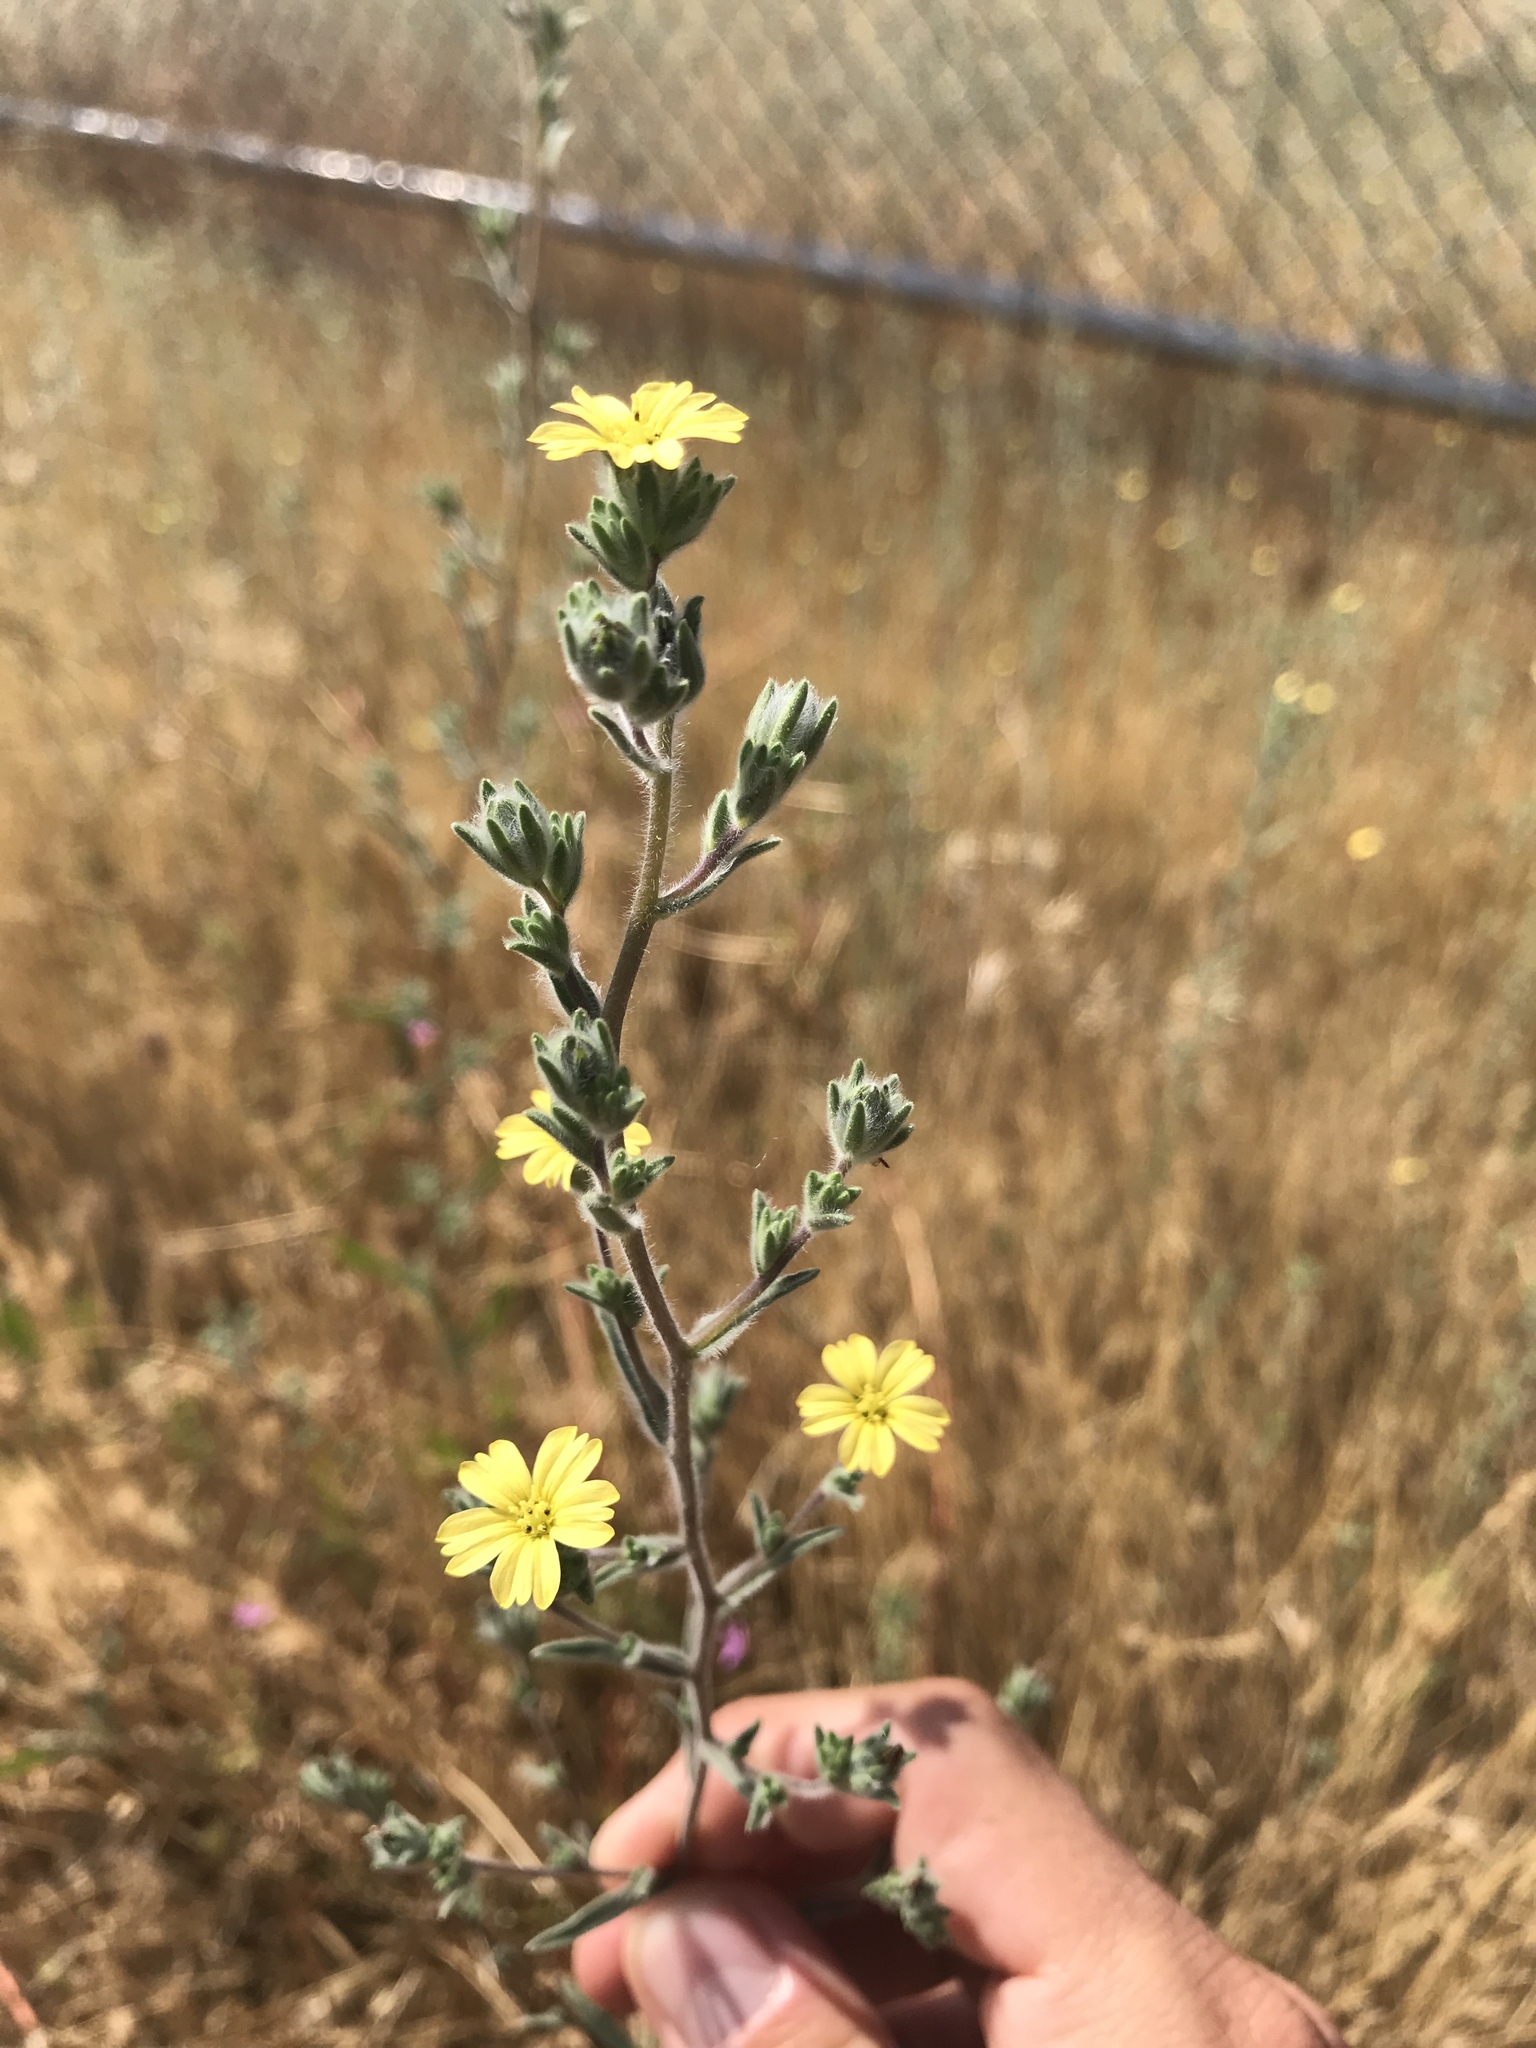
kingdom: Plantae
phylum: Tracheophyta
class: Magnoliopsida
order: Asterales
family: Asteraceae
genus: Lagophylla
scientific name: Lagophylla ramosissima
